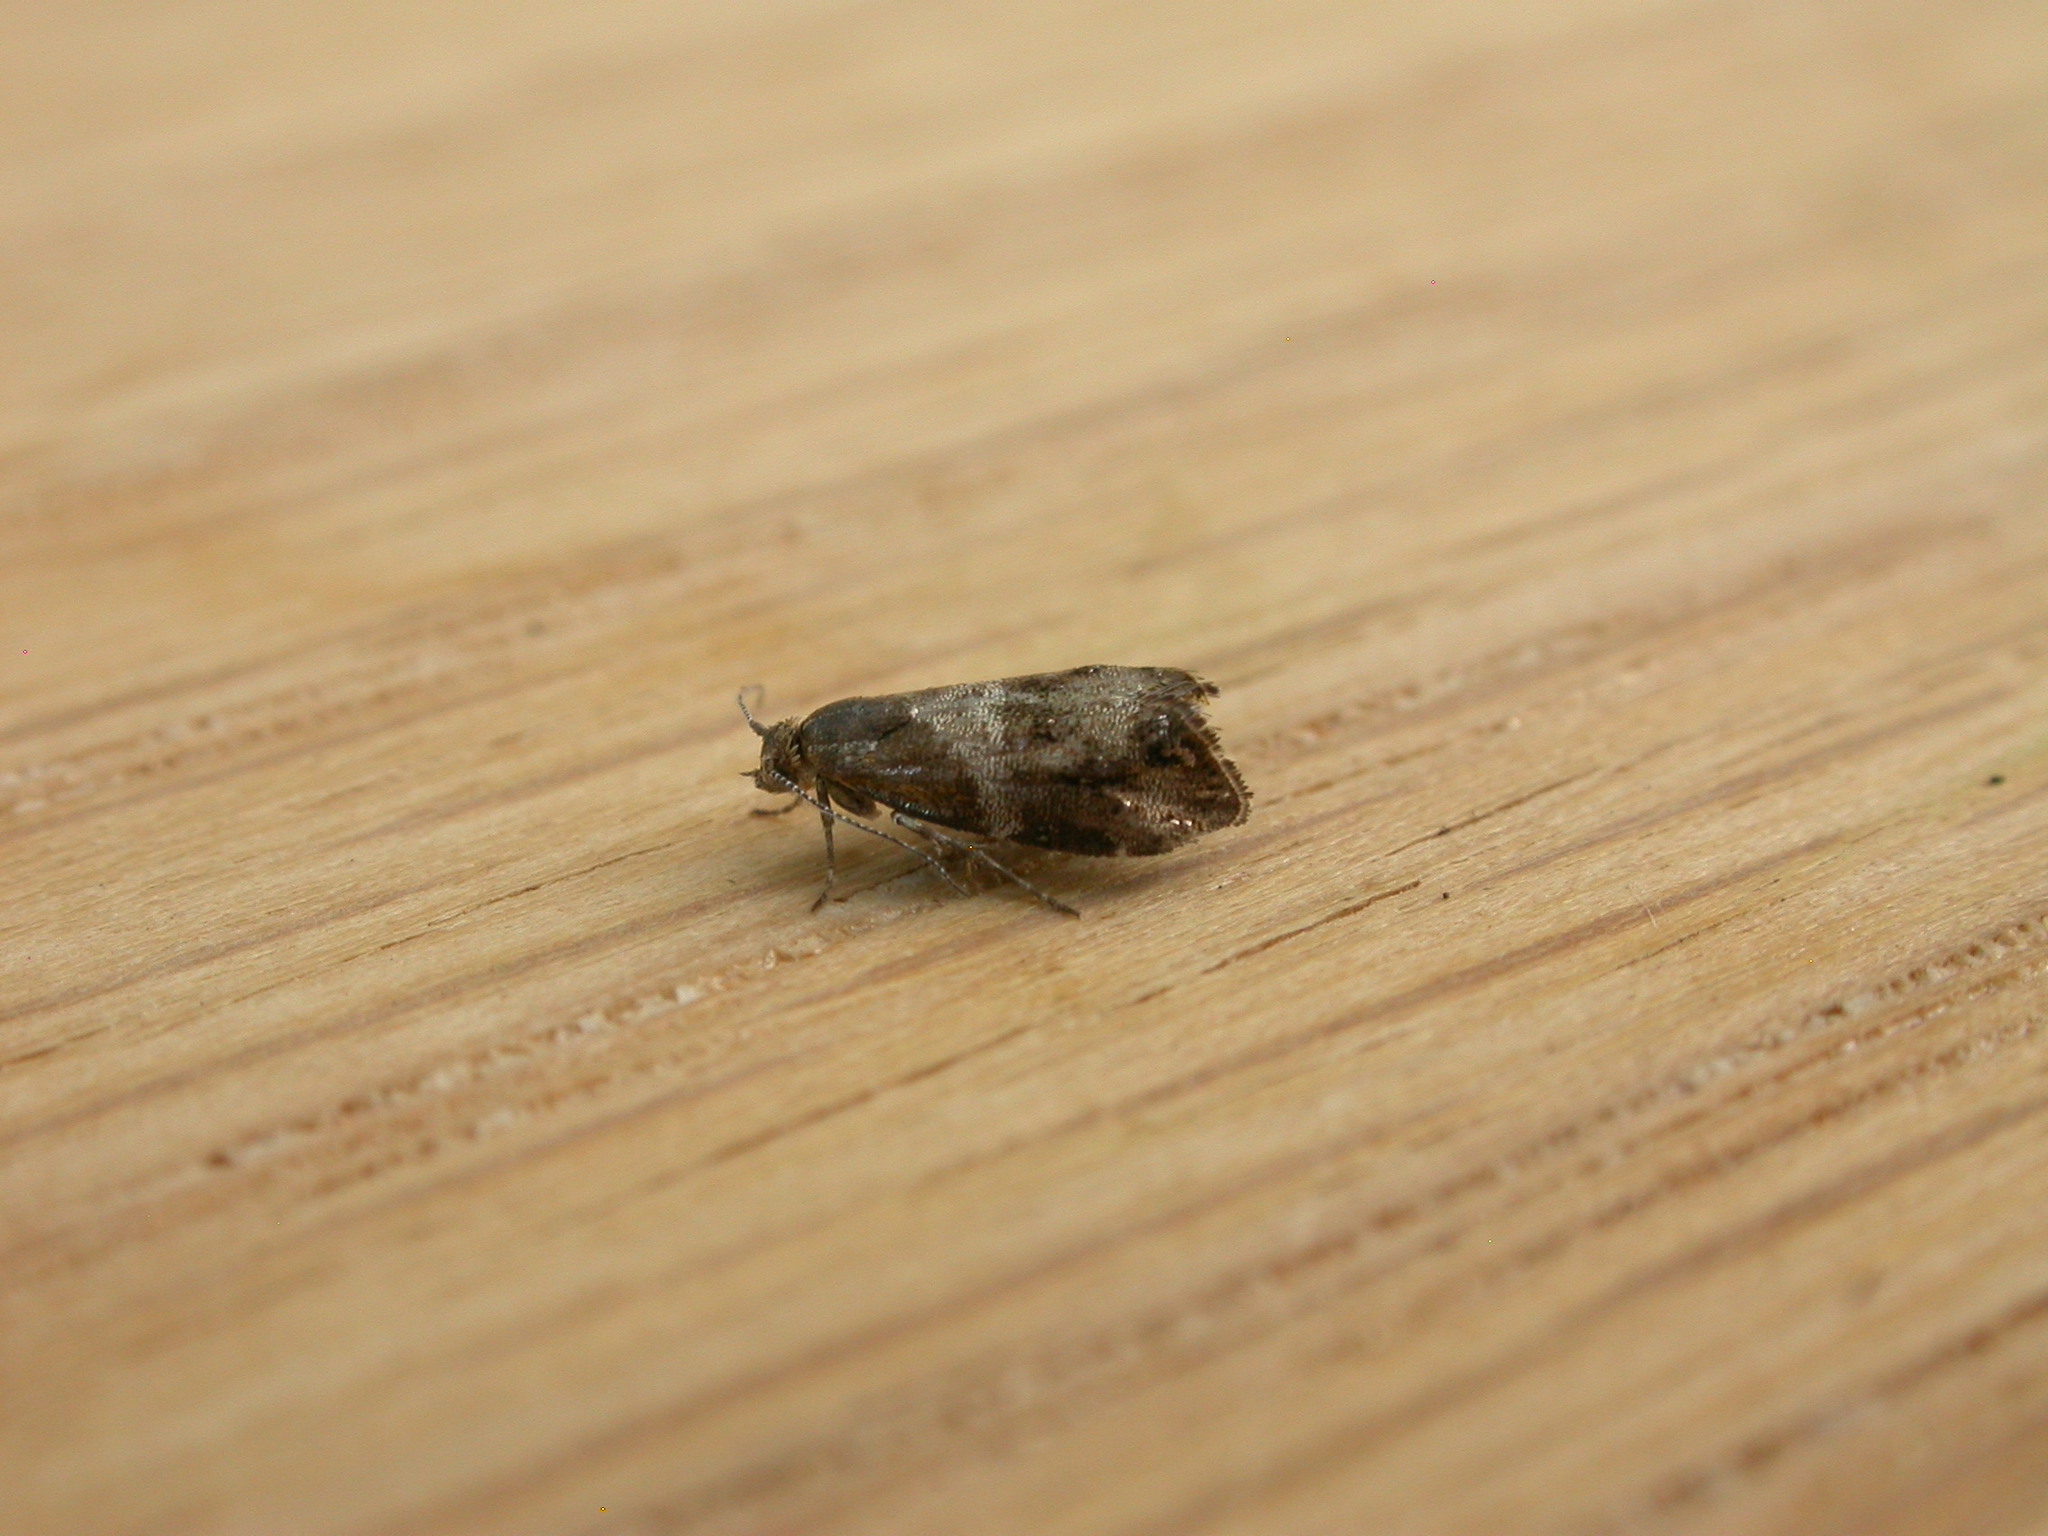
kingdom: Animalia
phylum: Arthropoda
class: Insecta
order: Lepidoptera
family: Choreutidae
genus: Tebenna
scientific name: Tebenna micalis
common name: Vagrant twitcher
